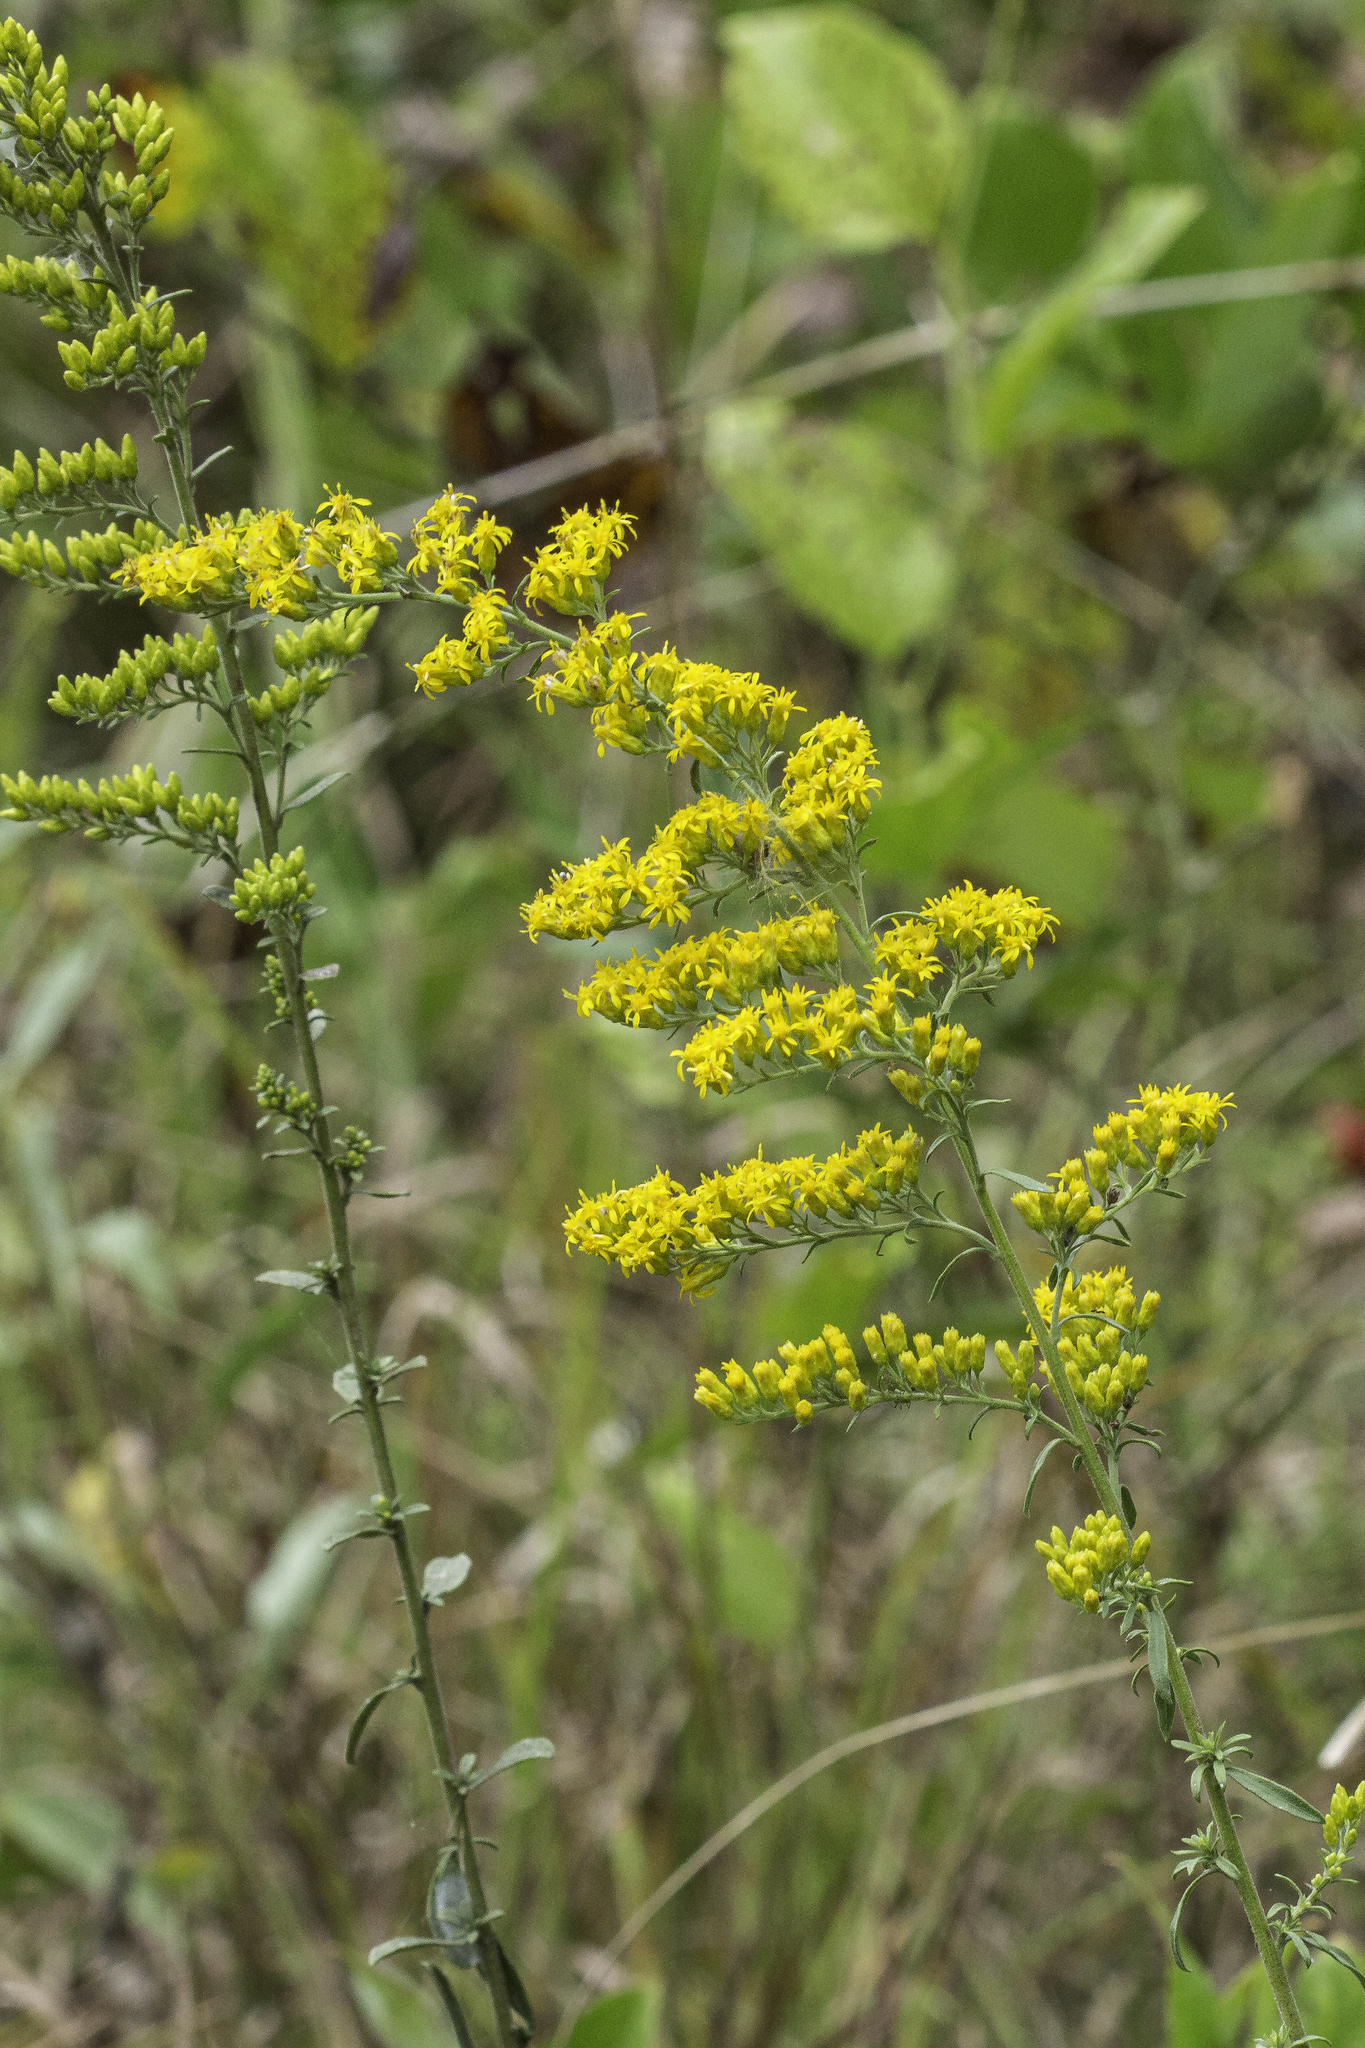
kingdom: Plantae
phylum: Tracheophyta
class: Magnoliopsida
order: Asterales
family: Asteraceae
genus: Solidago
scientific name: Solidago nemoralis
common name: Grey goldenrod
